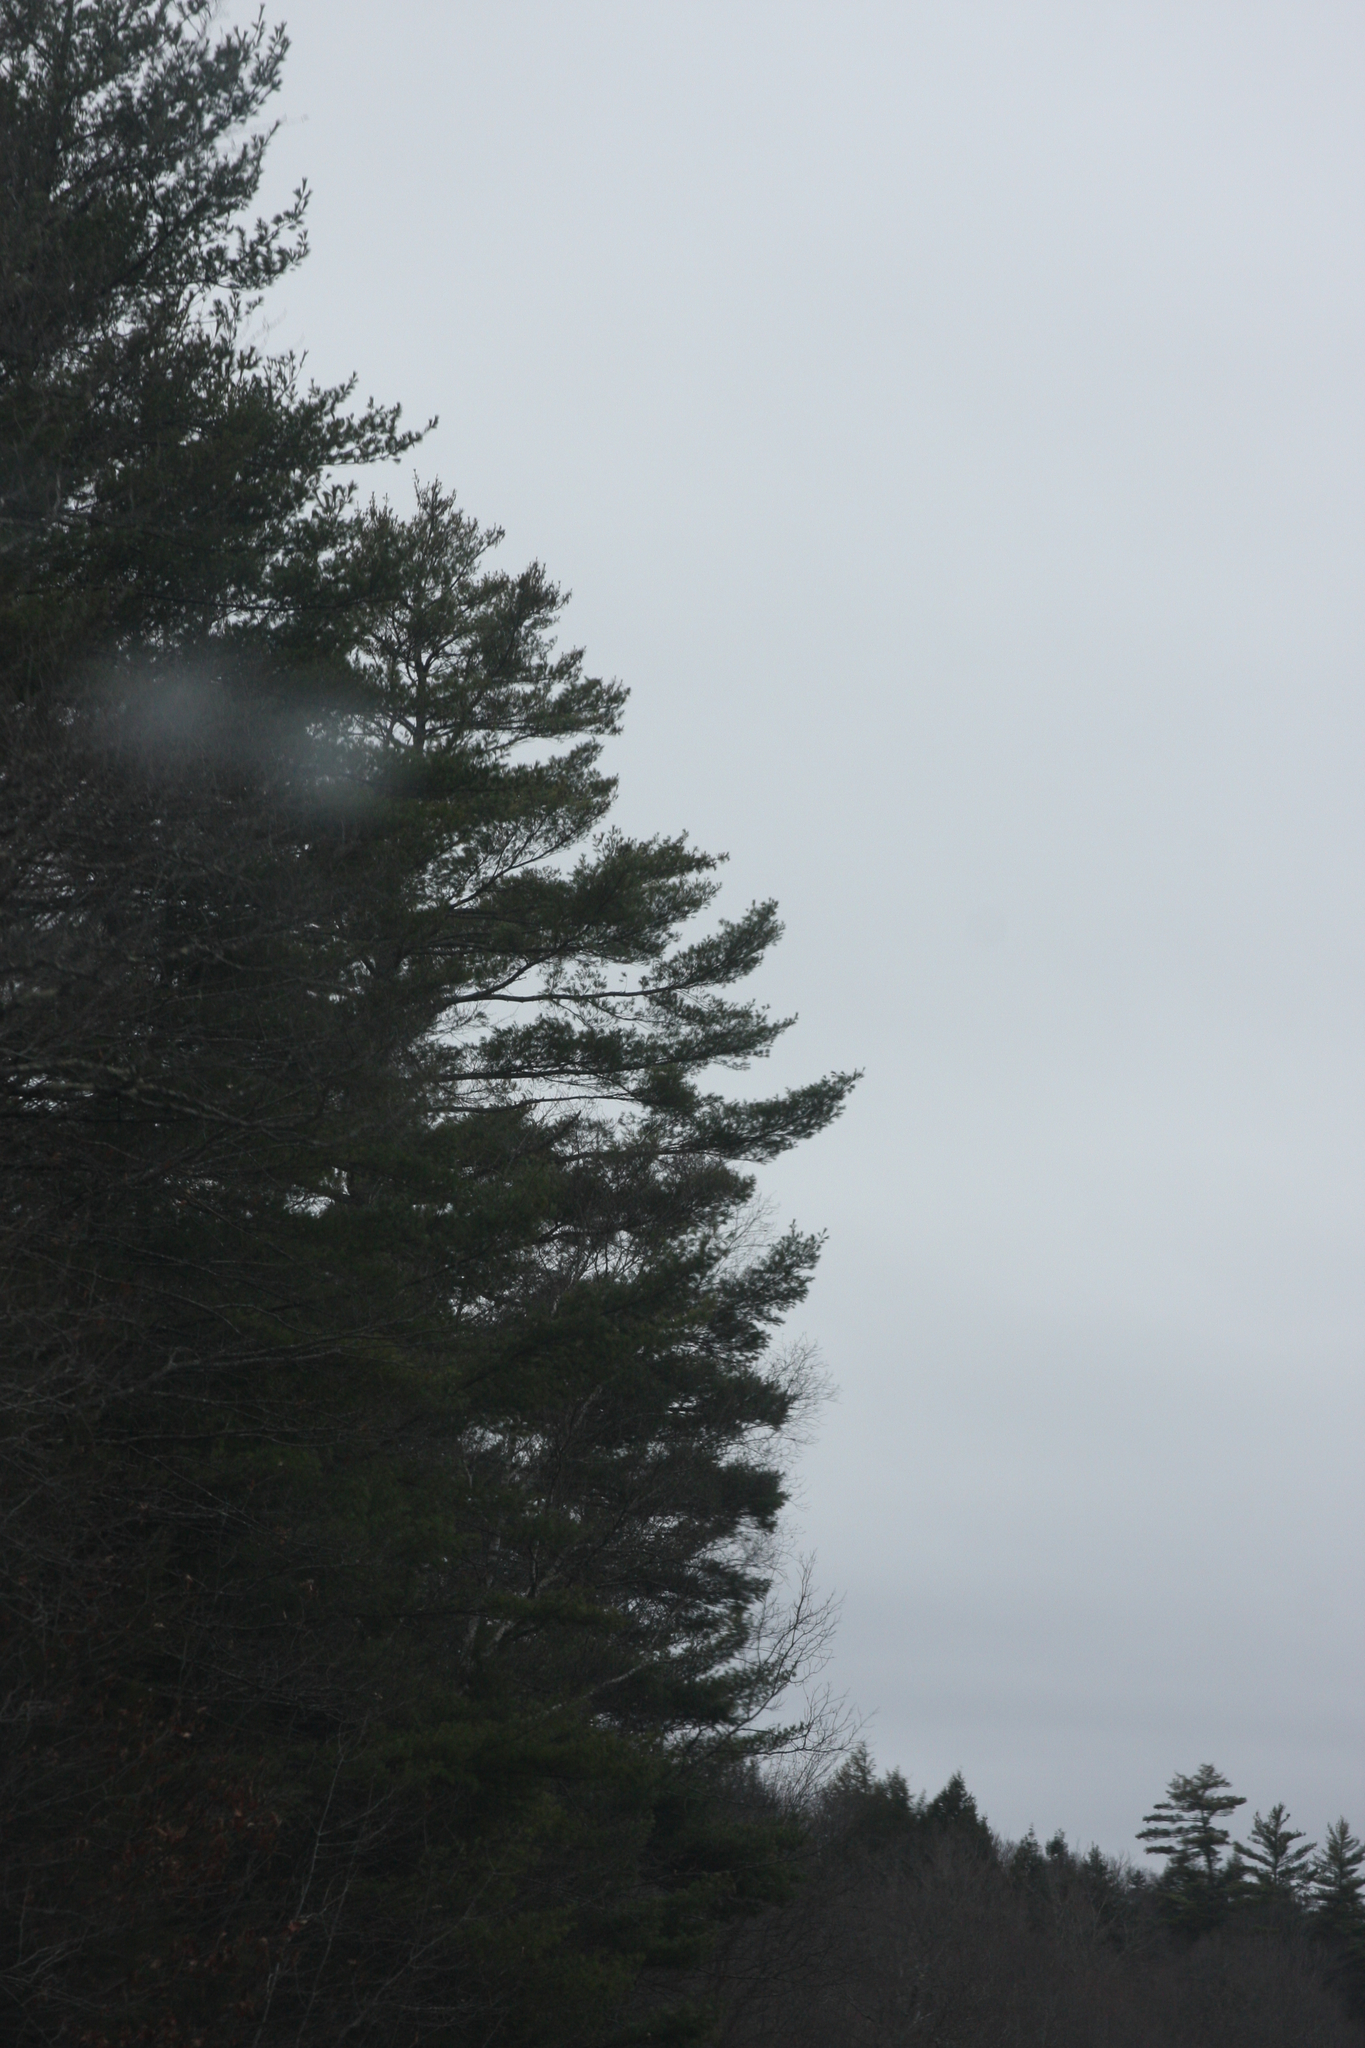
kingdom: Plantae
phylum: Tracheophyta
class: Pinopsida
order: Pinales
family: Pinaceae
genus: Pinus
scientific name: Pinus strobus
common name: Weymouth pine
